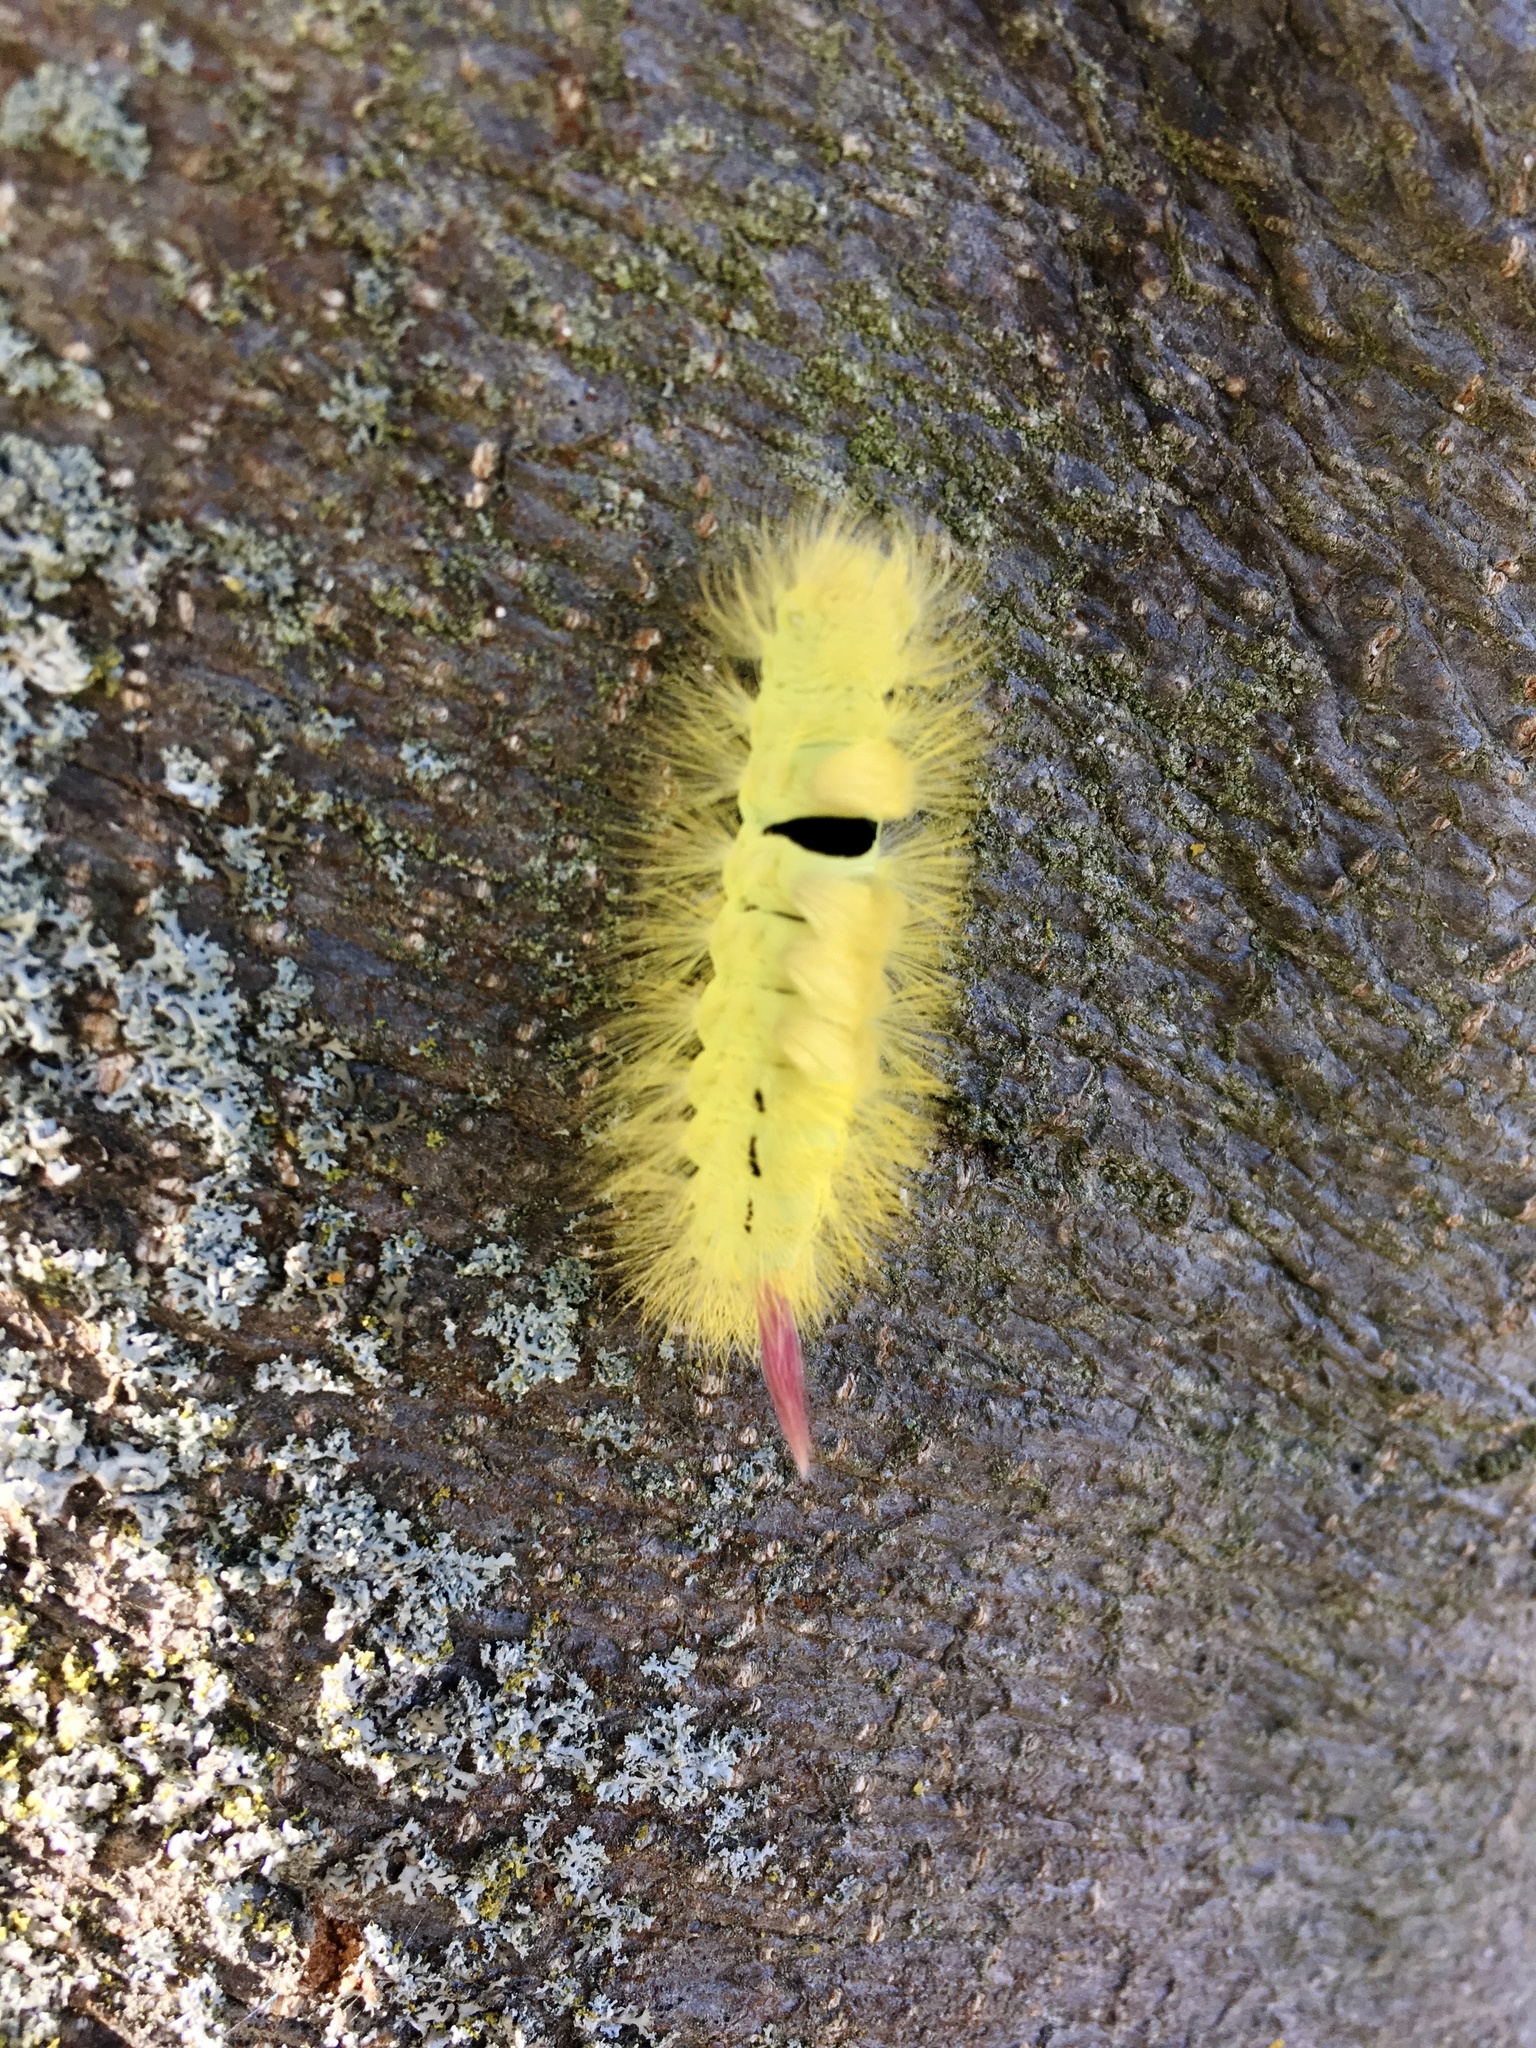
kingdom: Animalia
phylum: Arthropoda
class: Insecta
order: Lepidoptera
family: Erebidae
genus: Calliteara
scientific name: Calliteara pudibunda
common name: Pale tussock
